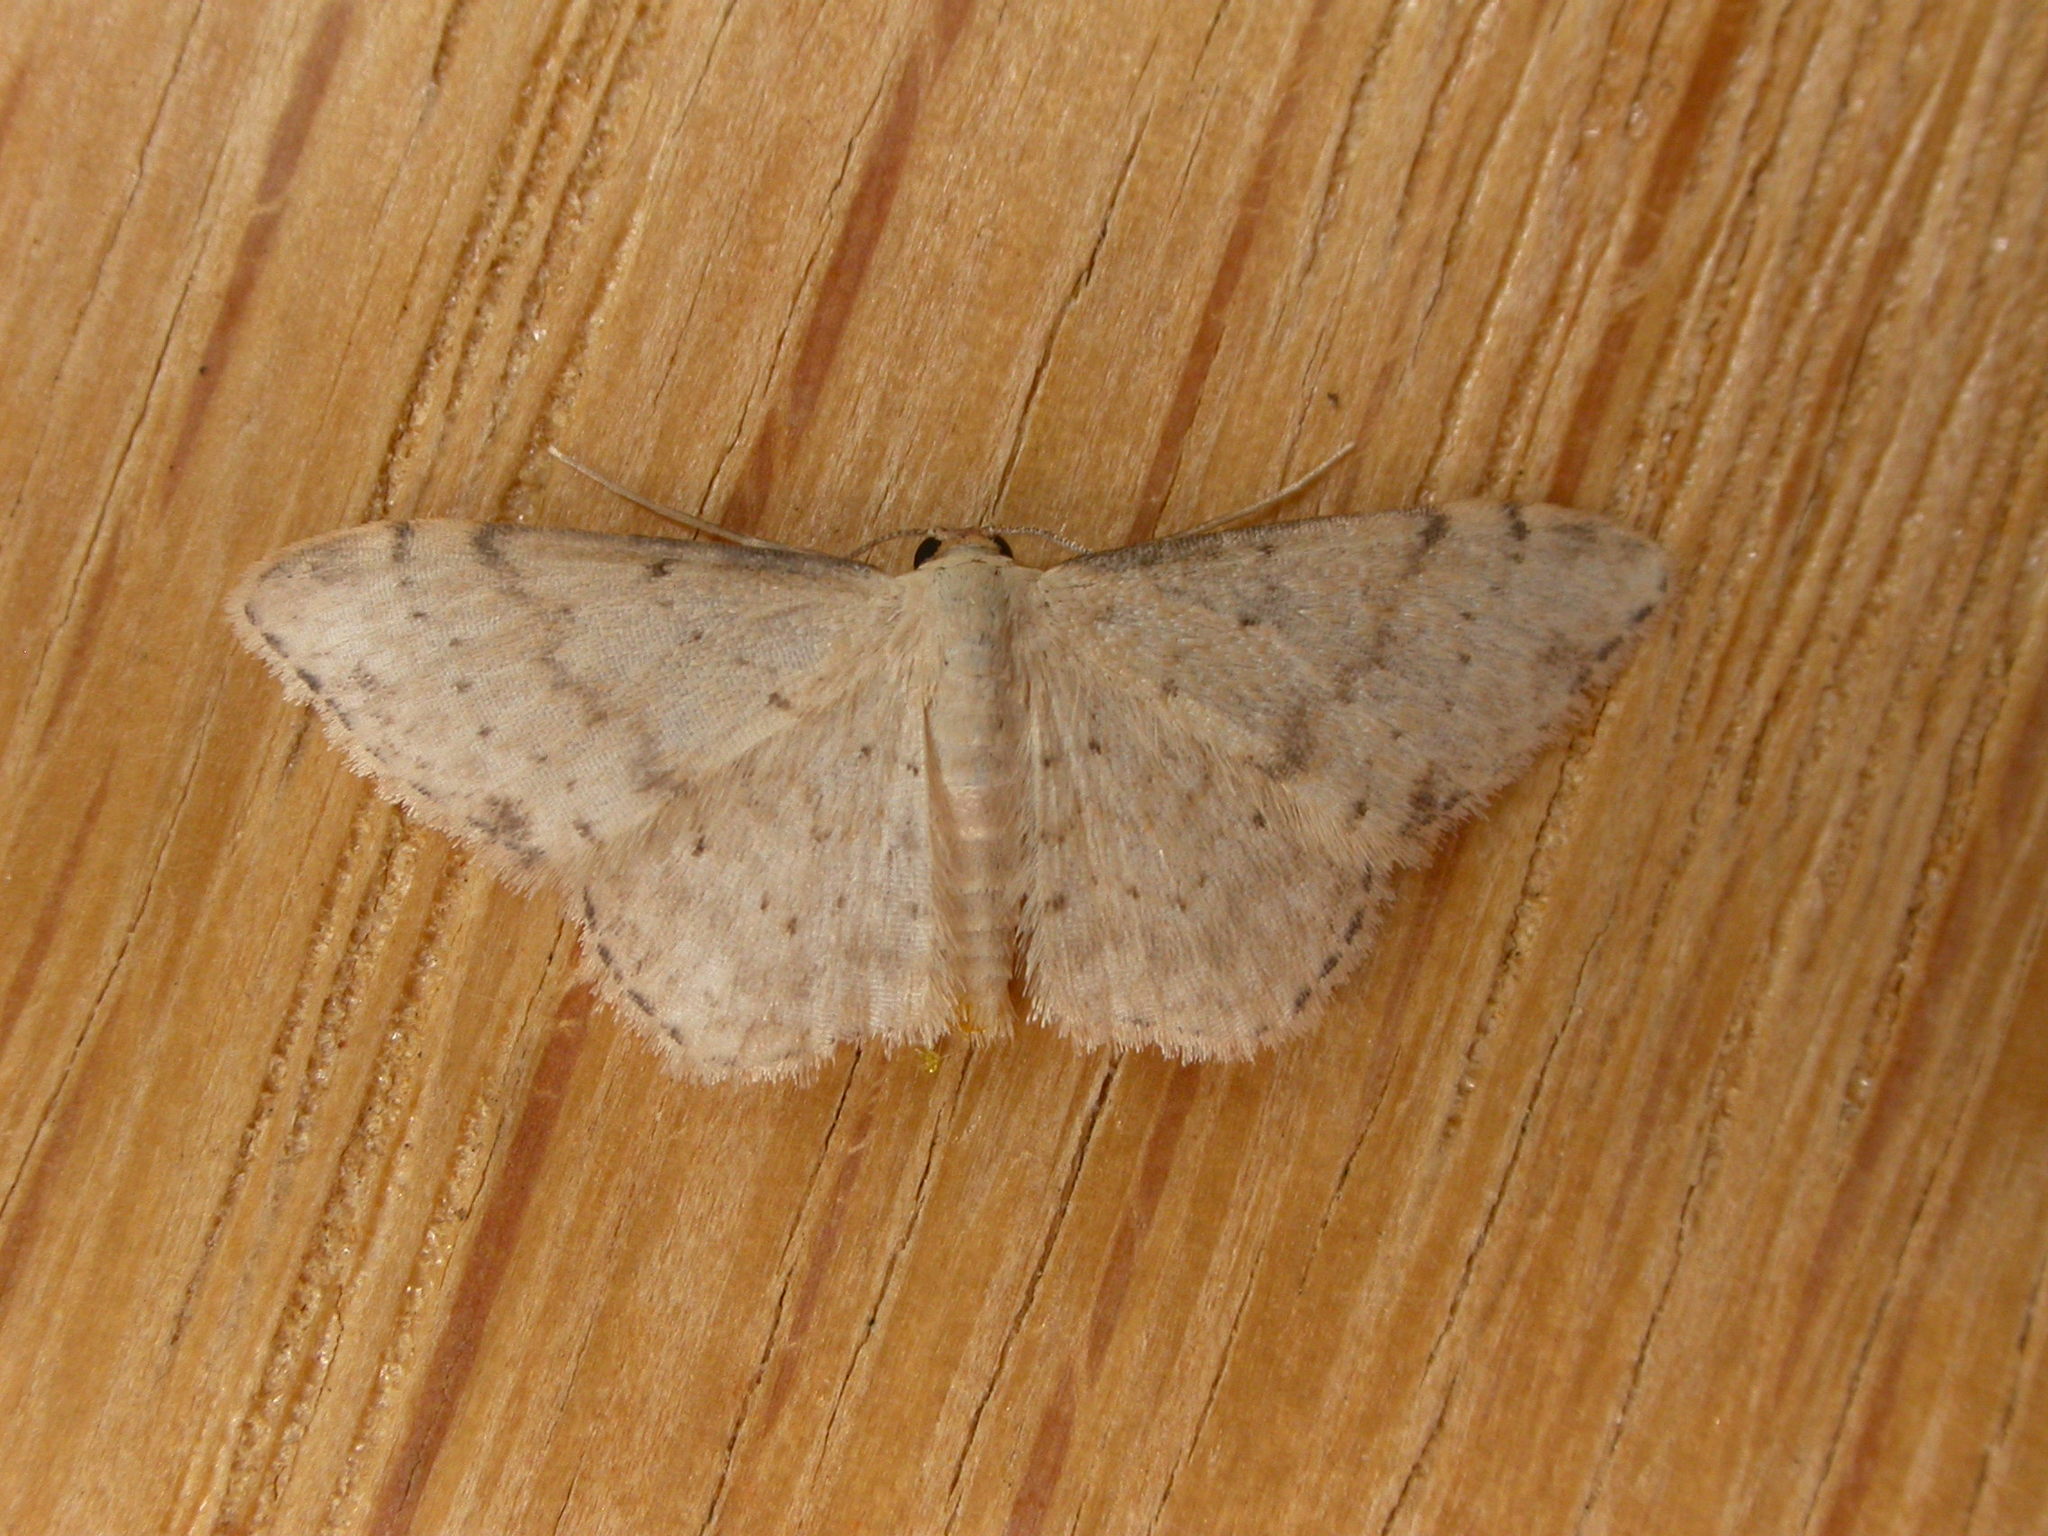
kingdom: Animalia
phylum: Arthropoda
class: Insecta
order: Lepidoptera
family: Geometridae
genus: Idaea
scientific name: Idaea halmaea
